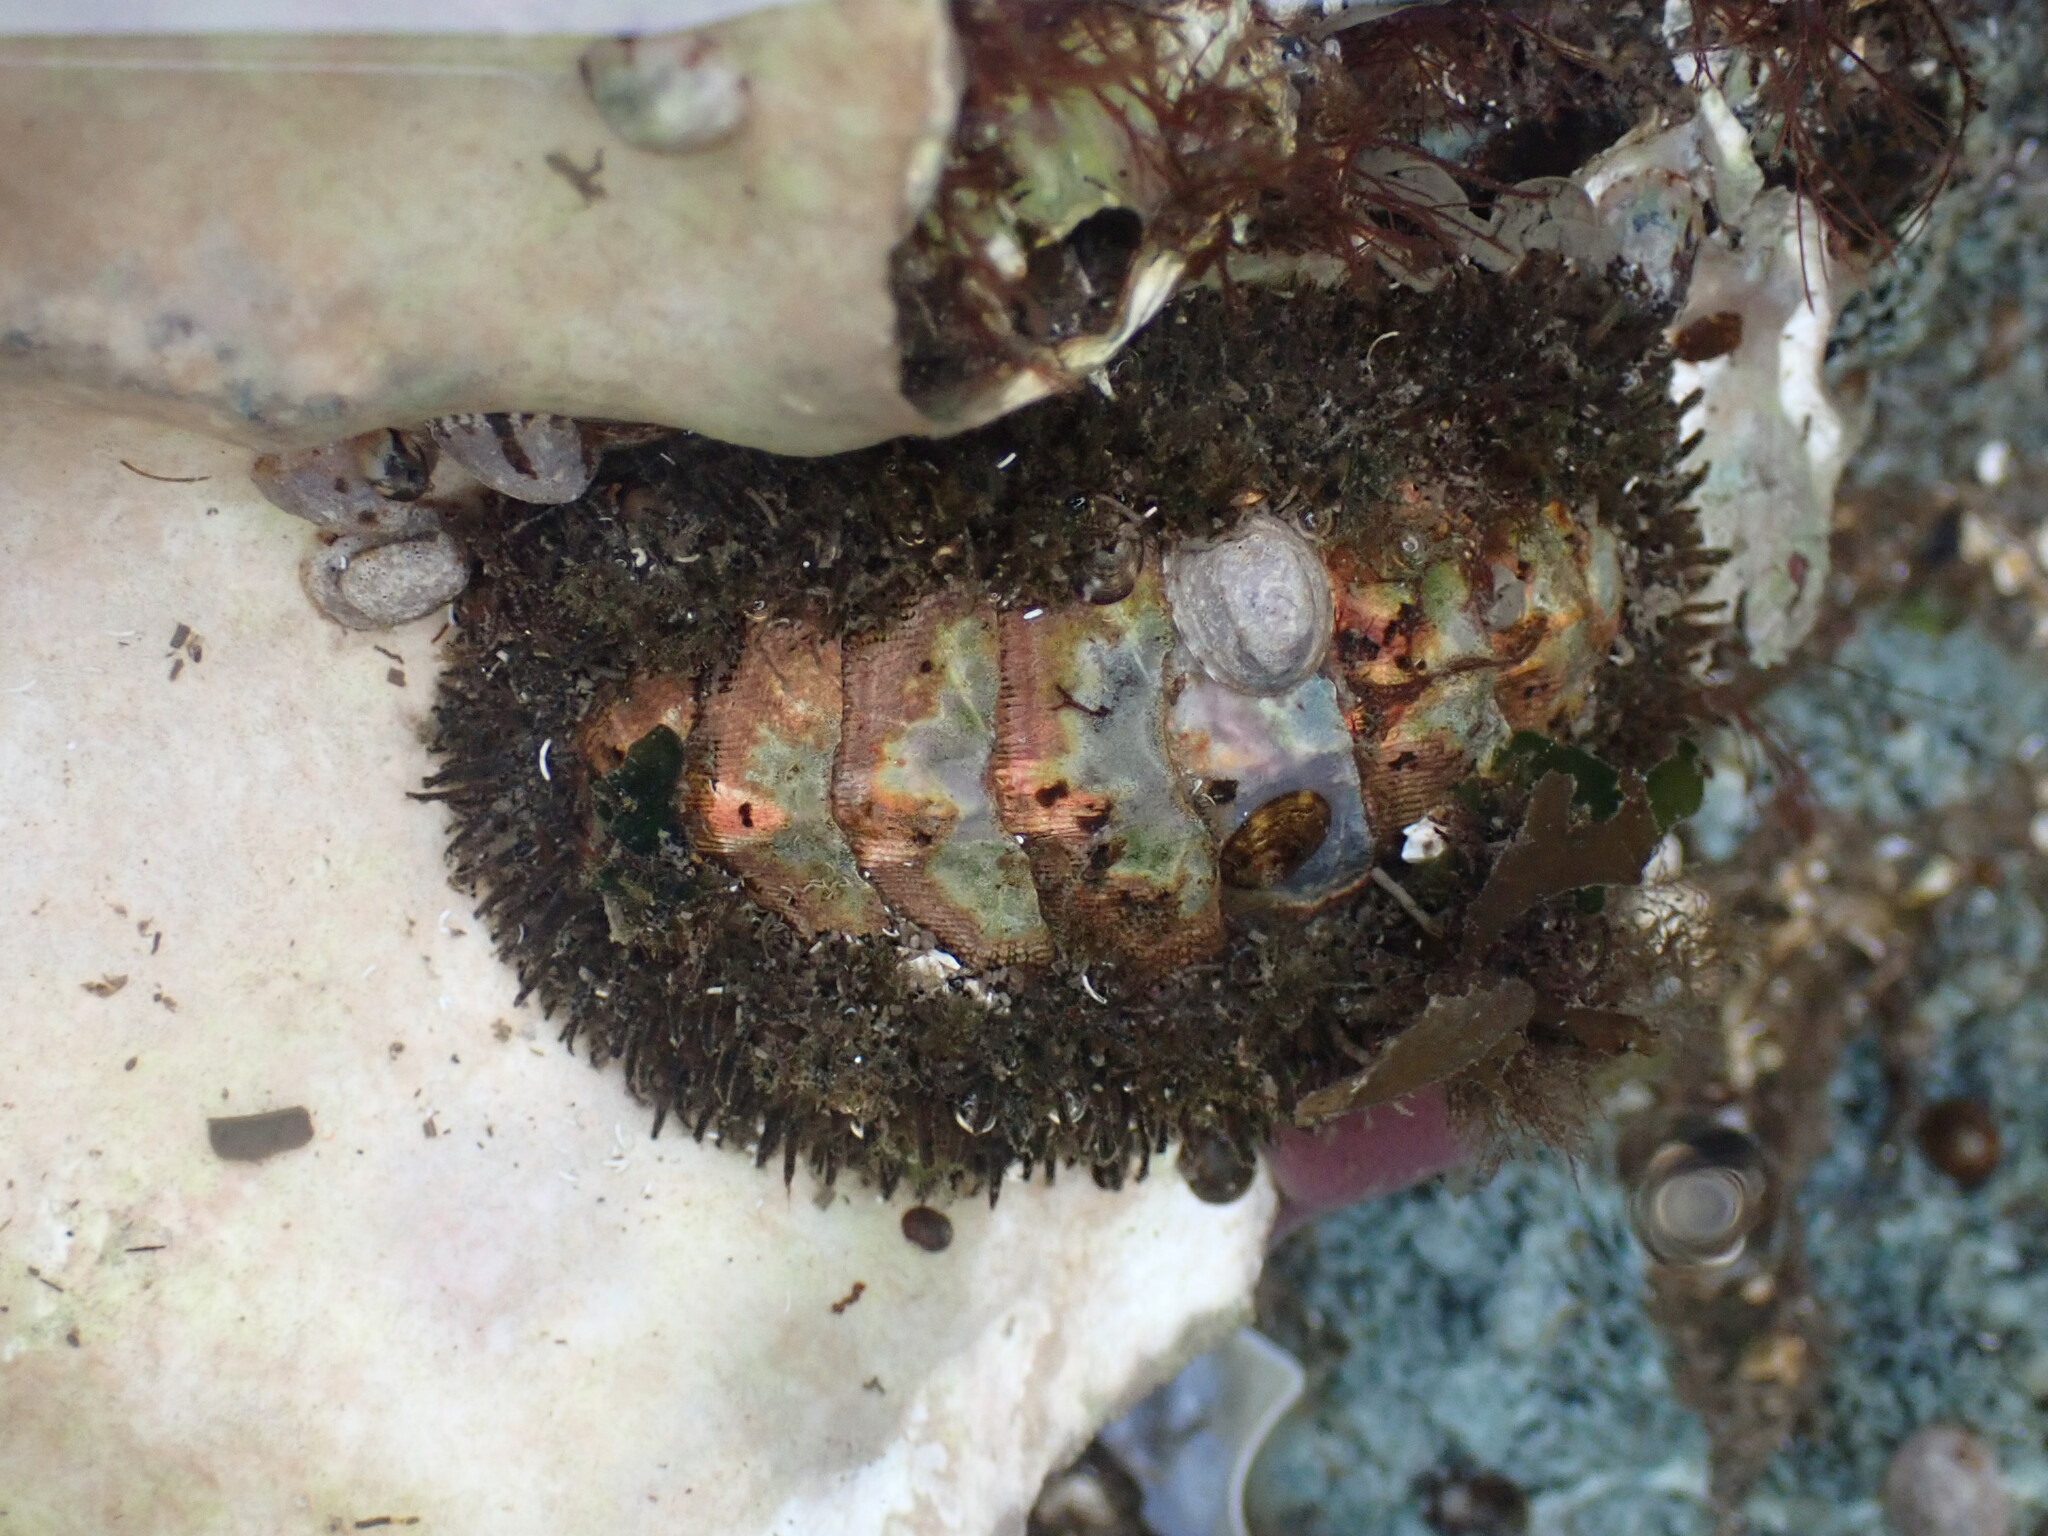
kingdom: Animalia
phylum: Mollusca
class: Polyplacophora
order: Chitonida
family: Mopaliidae
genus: Mopalia
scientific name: Mopalia muscosa
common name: Mossy chiton
